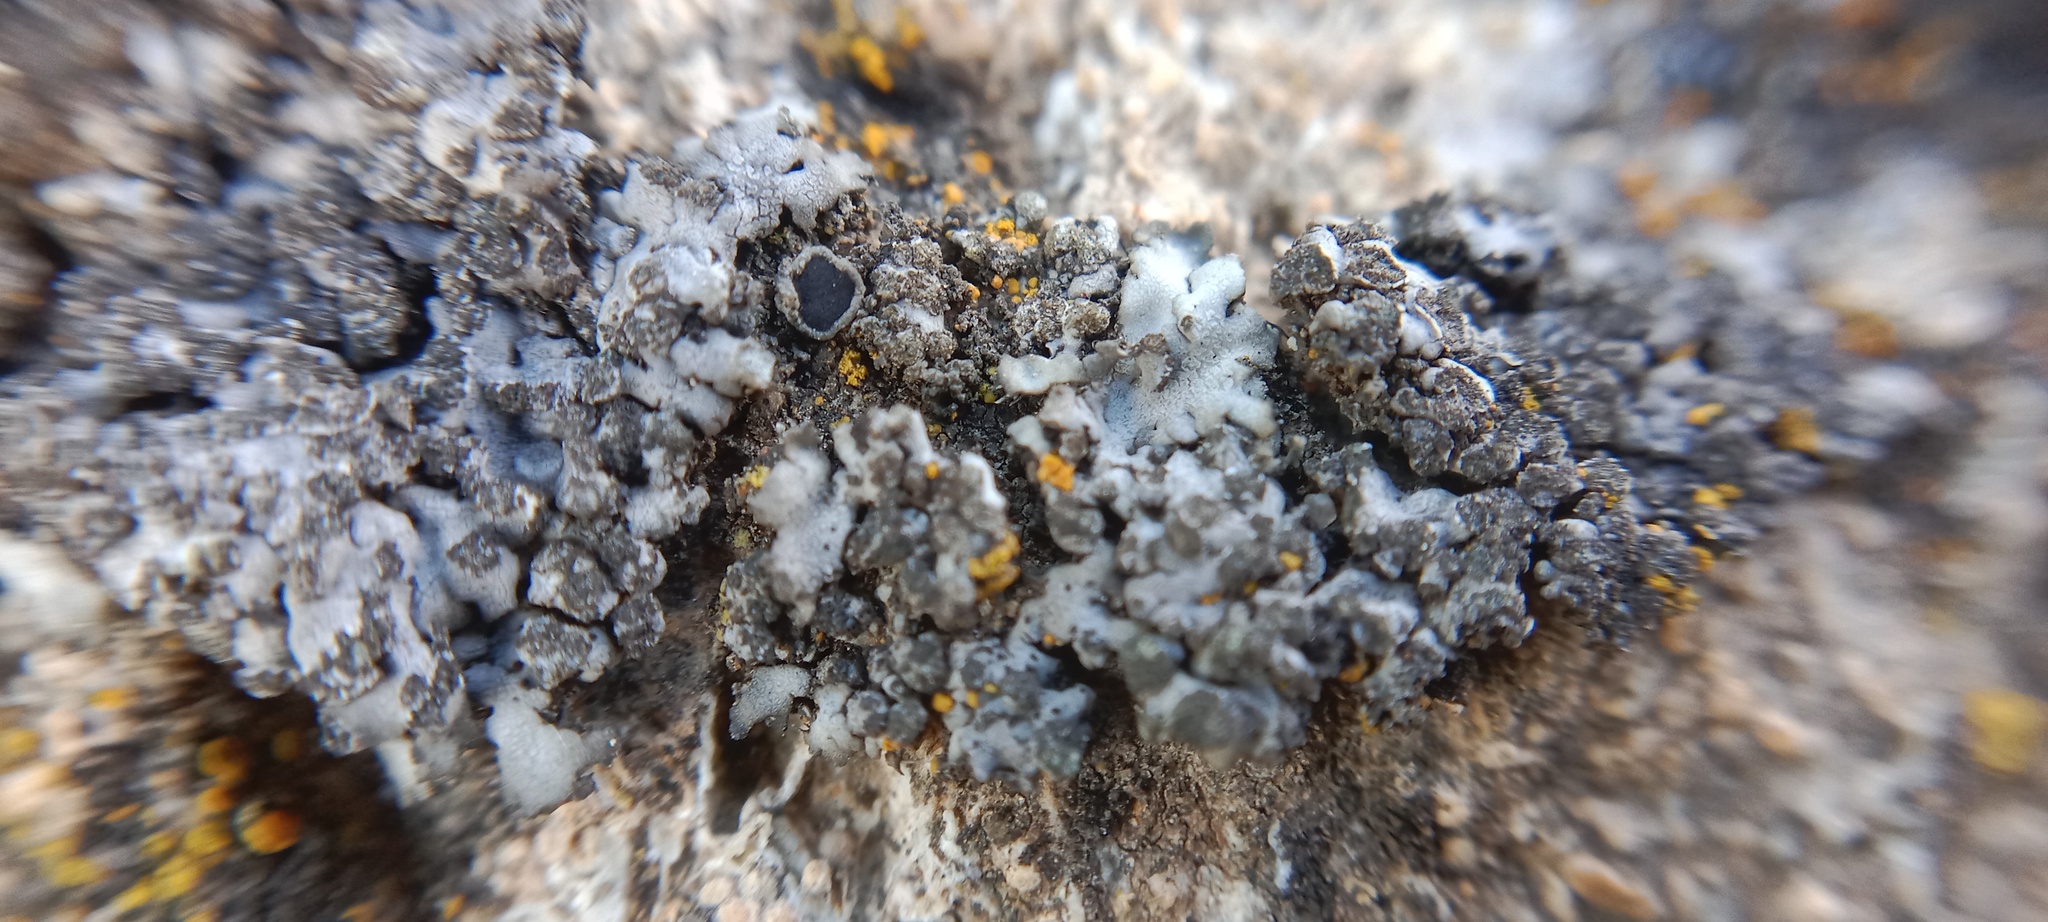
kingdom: Fungi
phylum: Ascomycota
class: Lecanoromycetes
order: Caliciales
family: Physciaceae
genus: Phaeophyscia
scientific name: Phaeophyscia orbicularis
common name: Mealy shadow lichen
